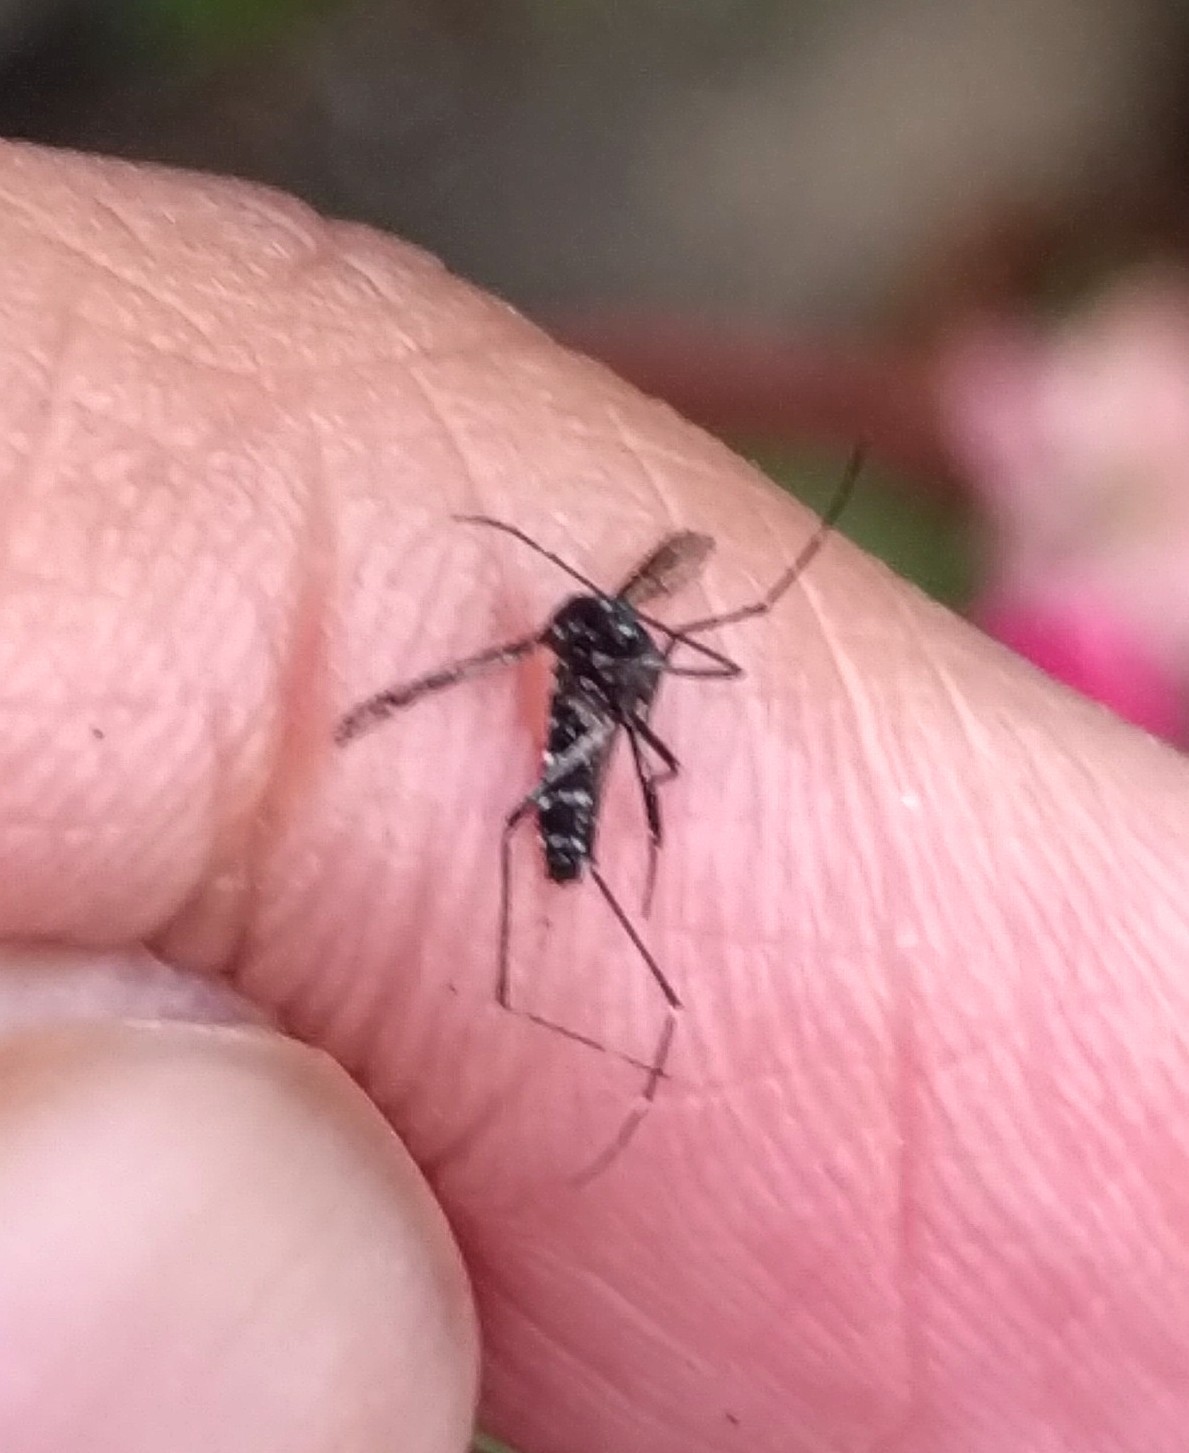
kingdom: Animalia
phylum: Arthropoda
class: Insecta
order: Diptera
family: Culicidae
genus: Aedes
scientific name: Aedes albopictus
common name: Tiger mosquito
